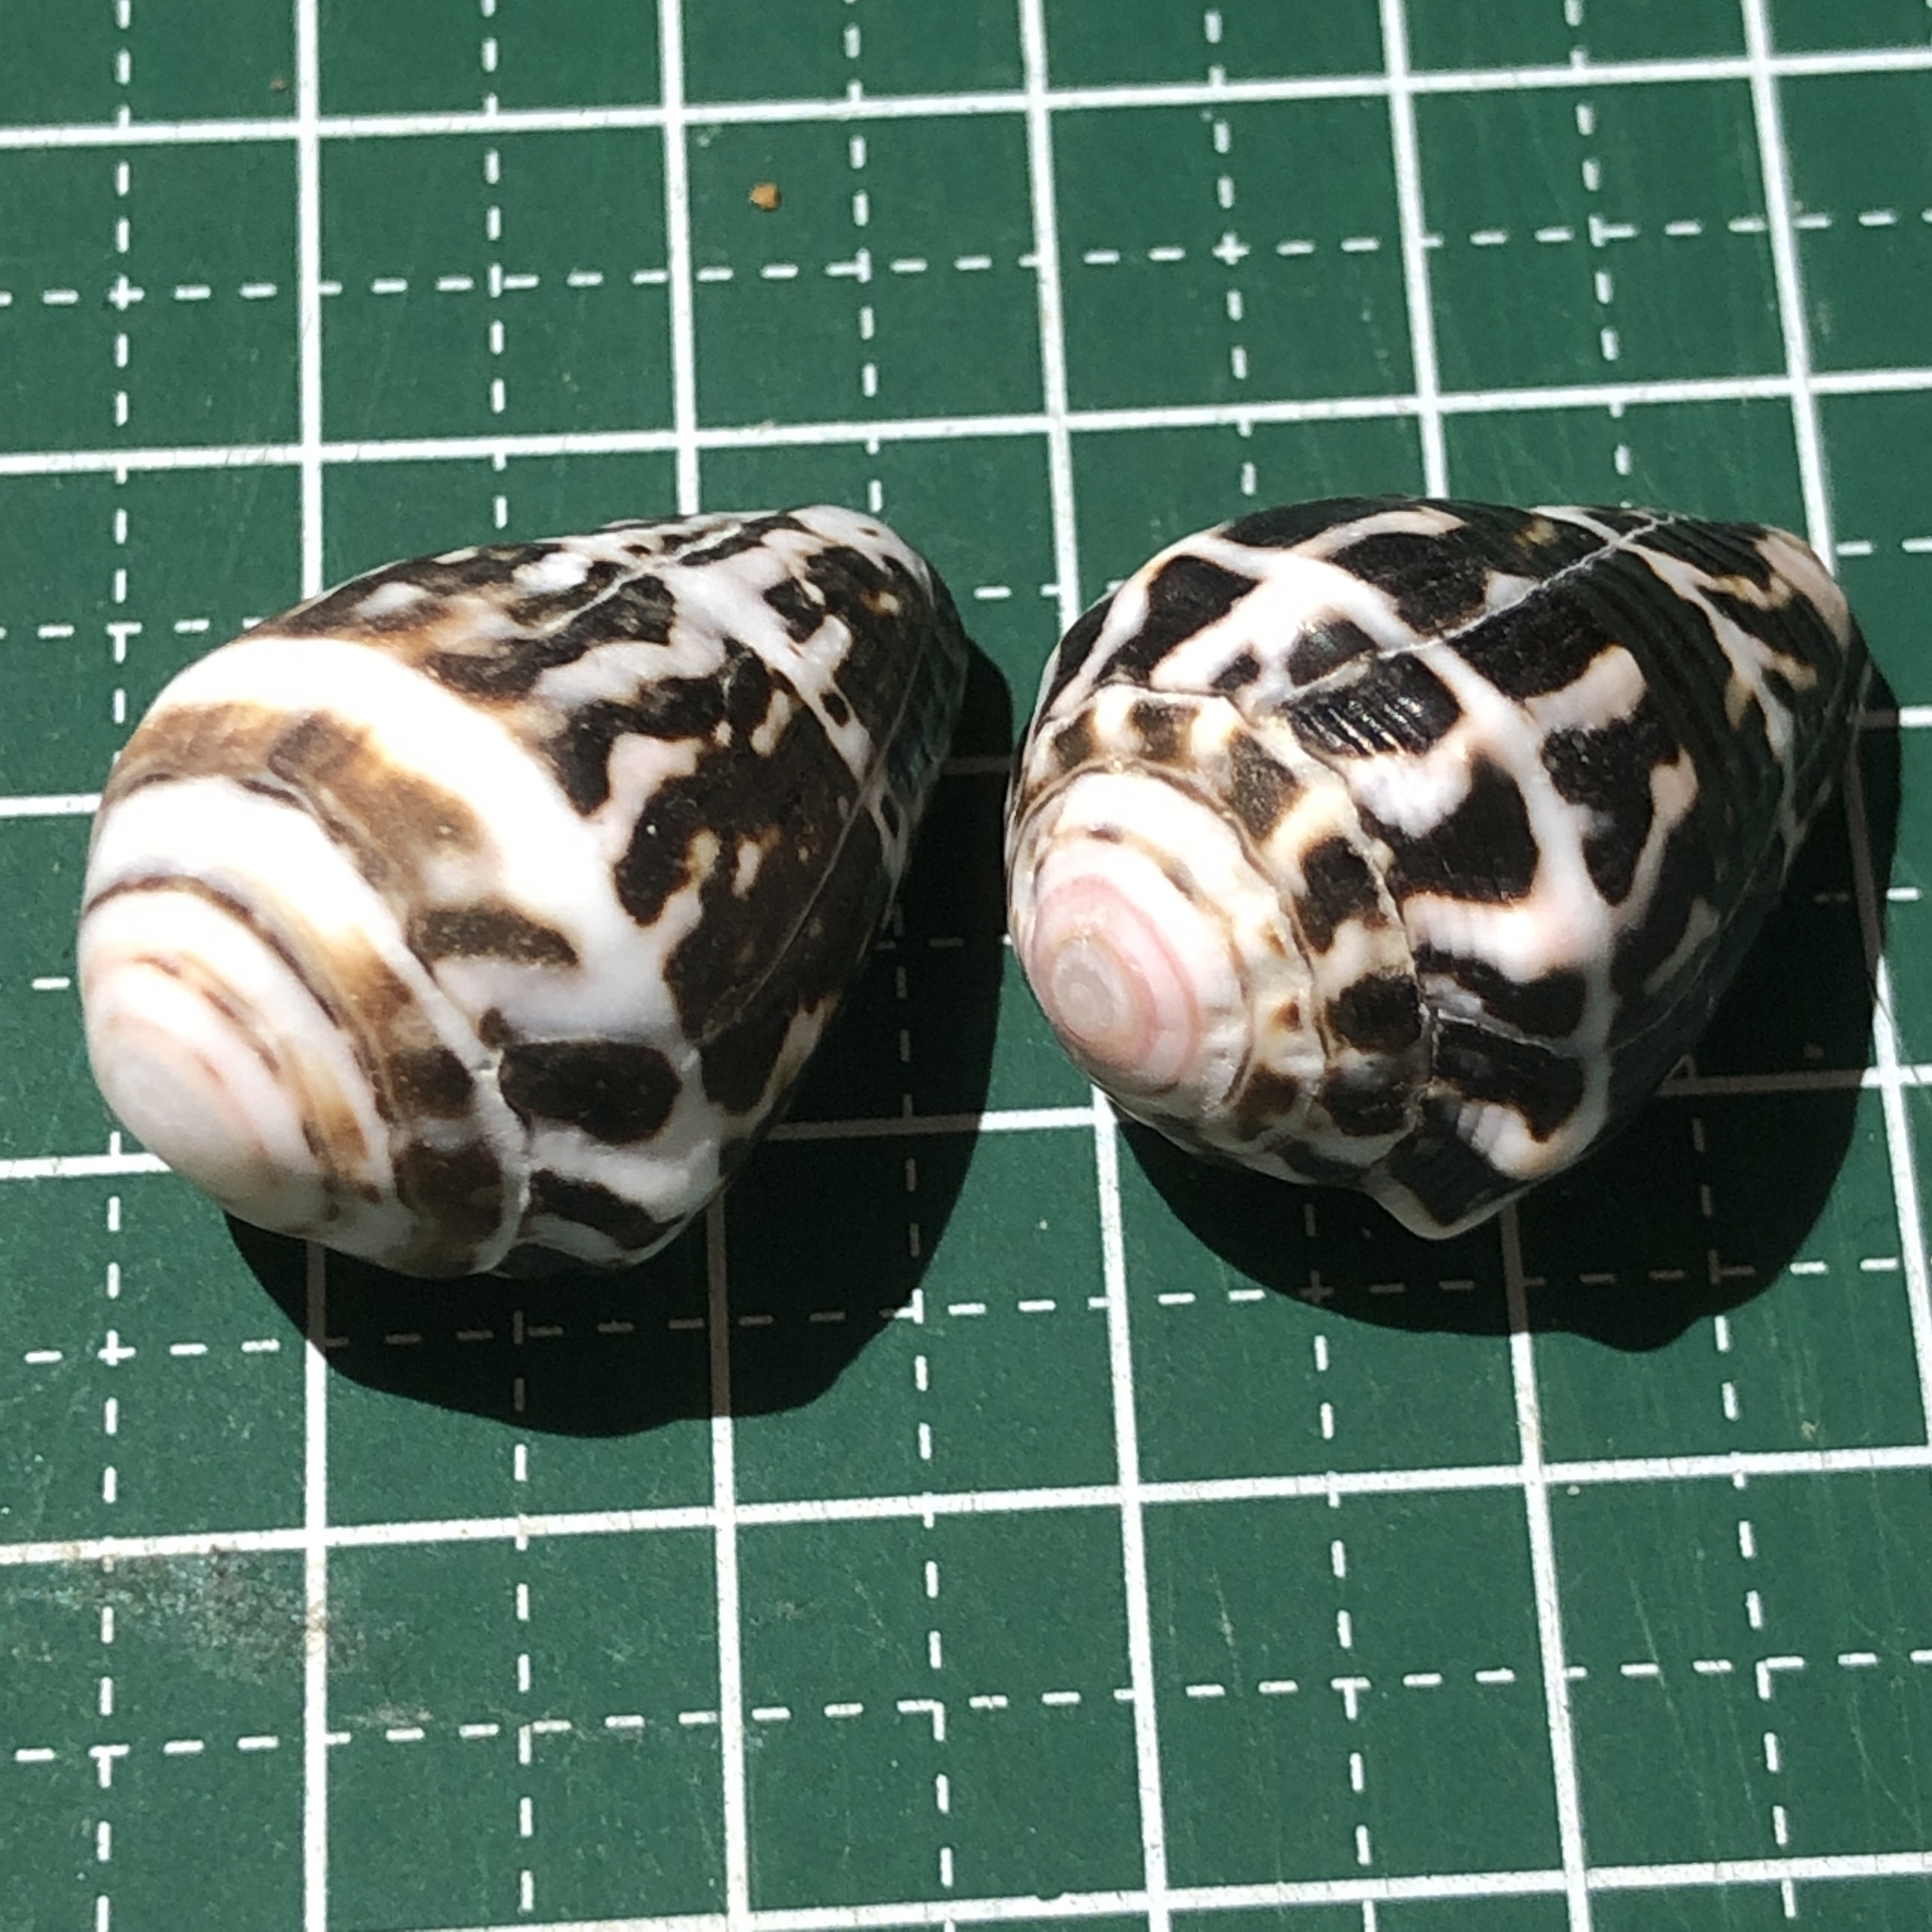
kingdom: Animalia
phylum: Mollusca
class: Gastropoda
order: Neogastropoda
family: Conidae
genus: Conus
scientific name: Conus chaldaeus
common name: Astrologer's cone
